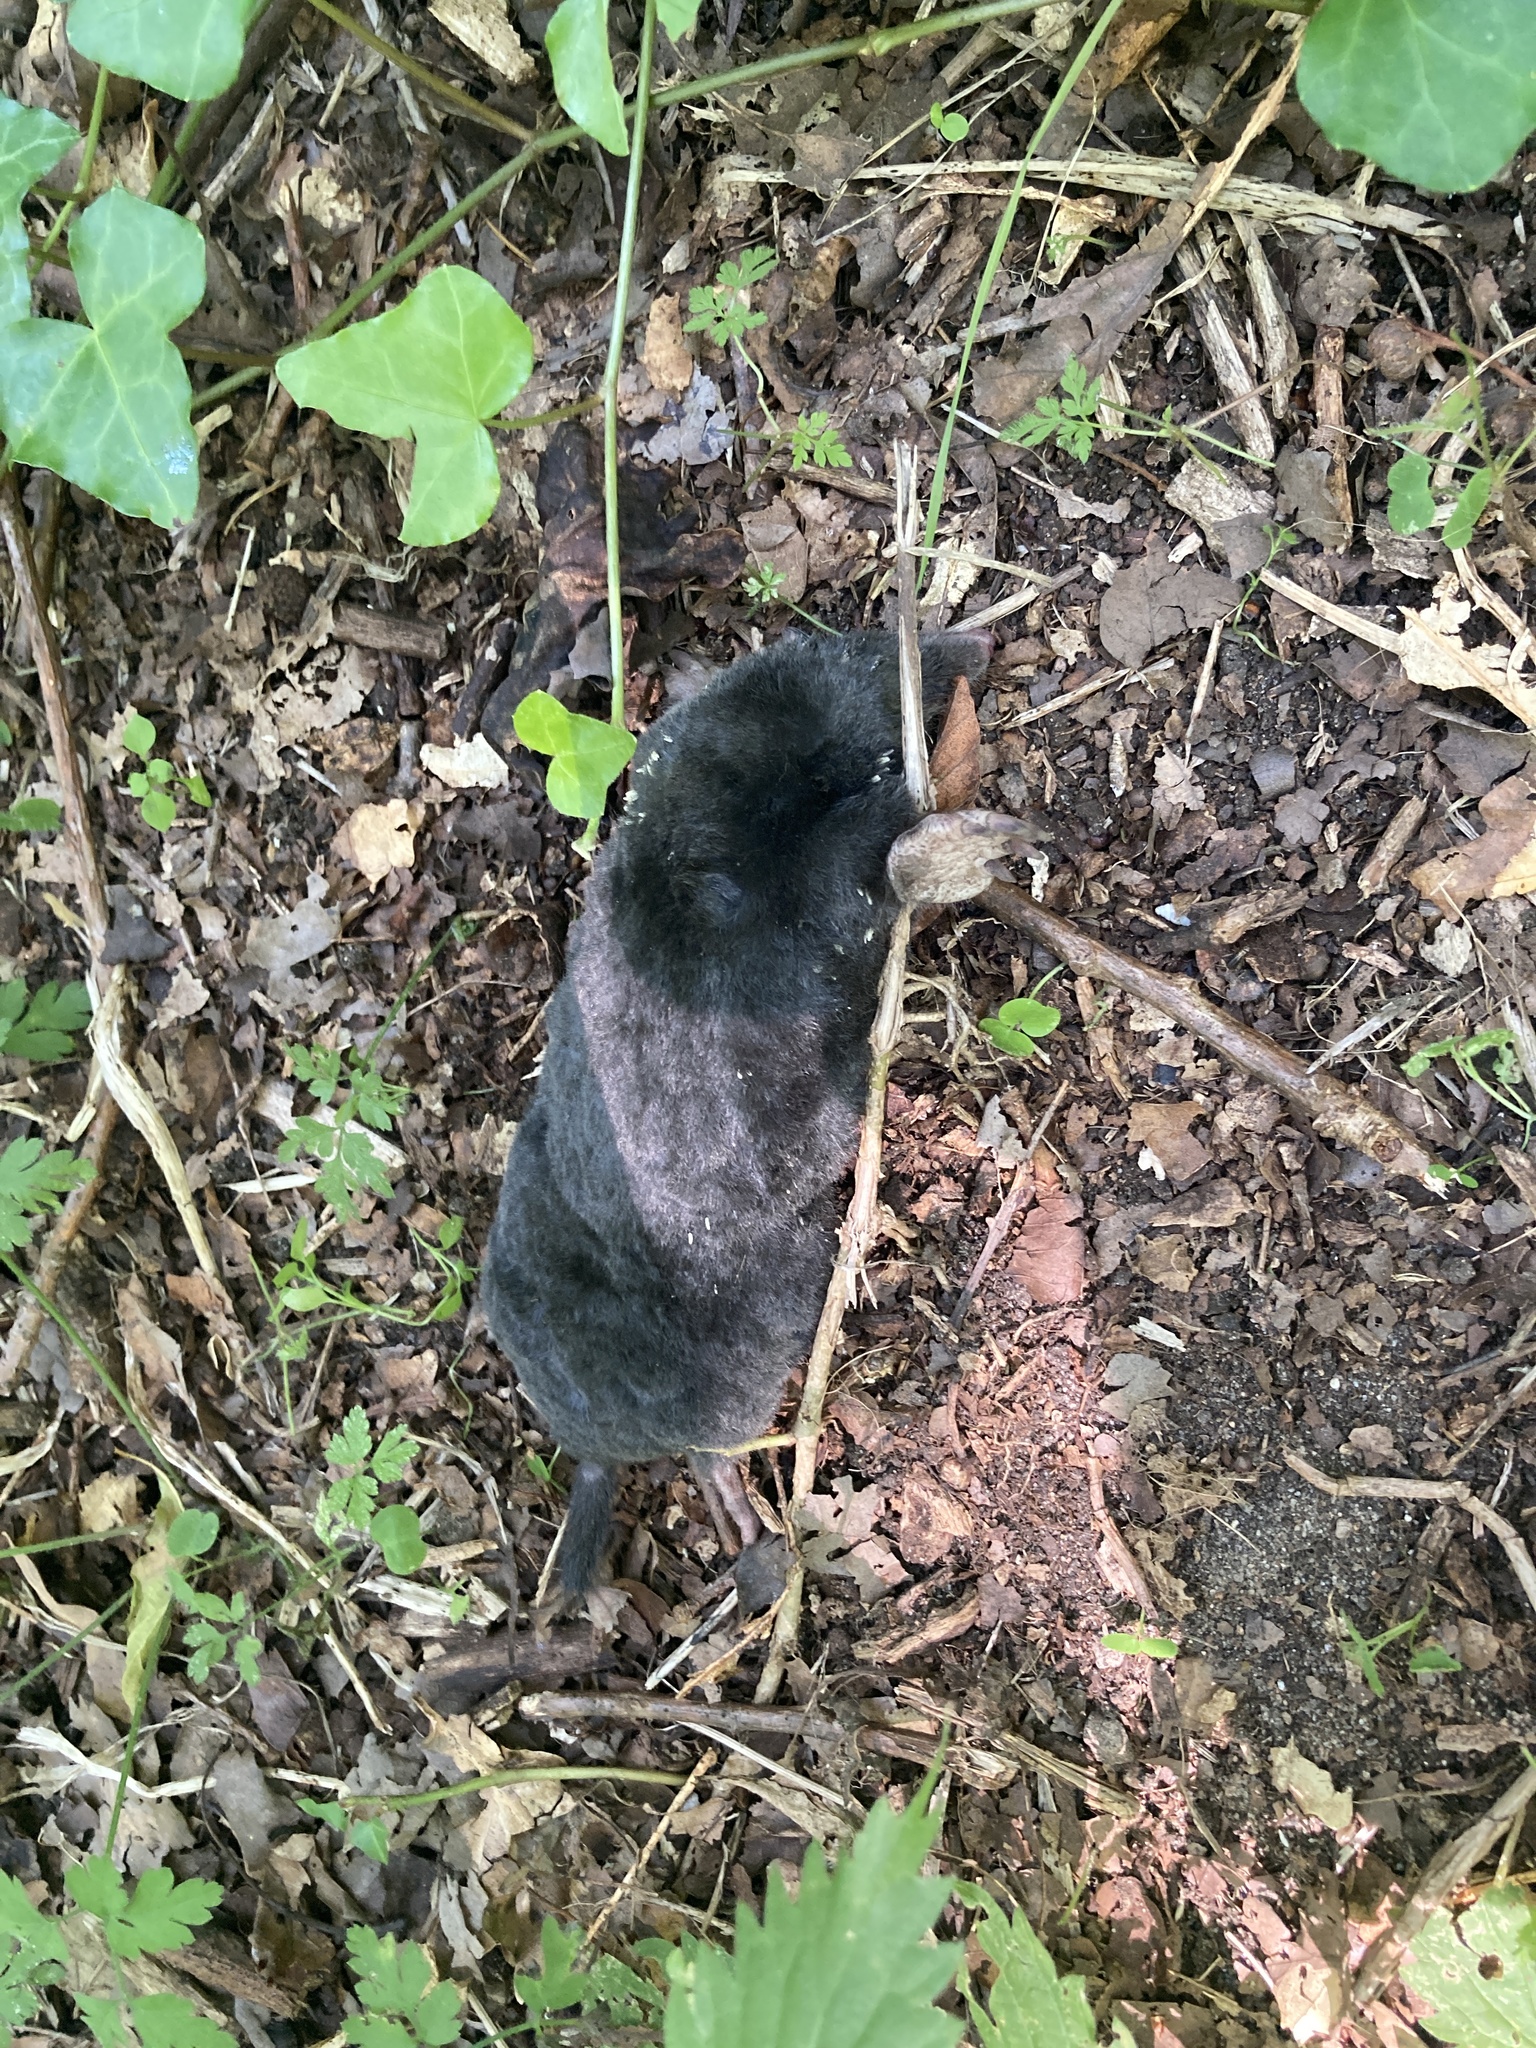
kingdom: Animalia
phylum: Chordata
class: Mammalia
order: Soricomorpha
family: Talpidae
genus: Talpa
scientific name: Talpa europaea
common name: European mole
